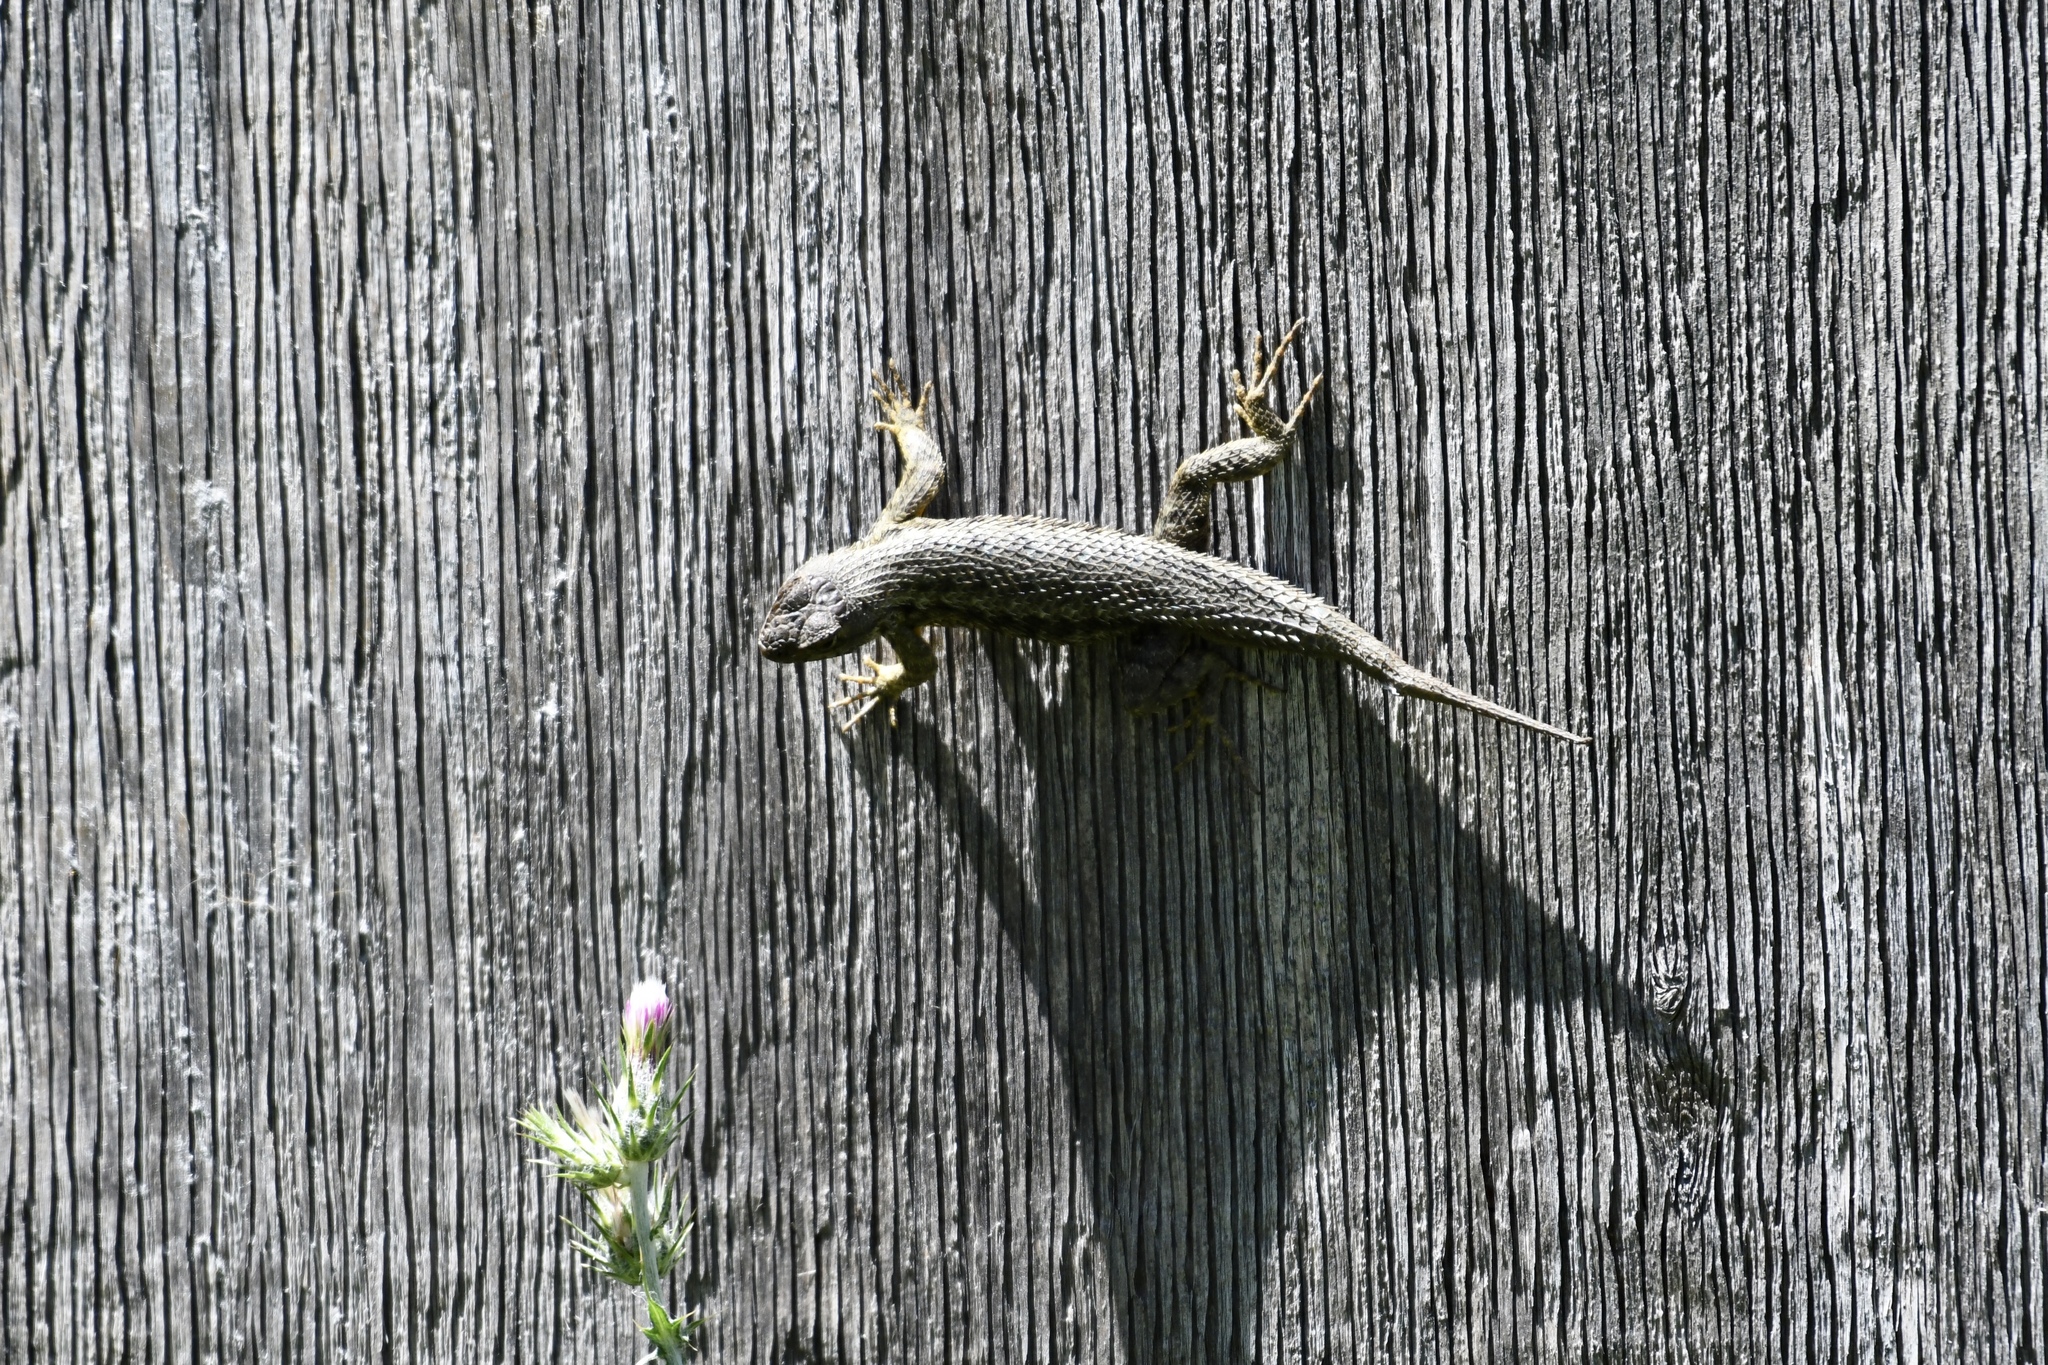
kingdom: Animalia
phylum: Chordata
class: Squamata
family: Phrynosomatidae
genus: Sceloporus
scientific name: Sceloporus occidentalis
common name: Western fence lizard
